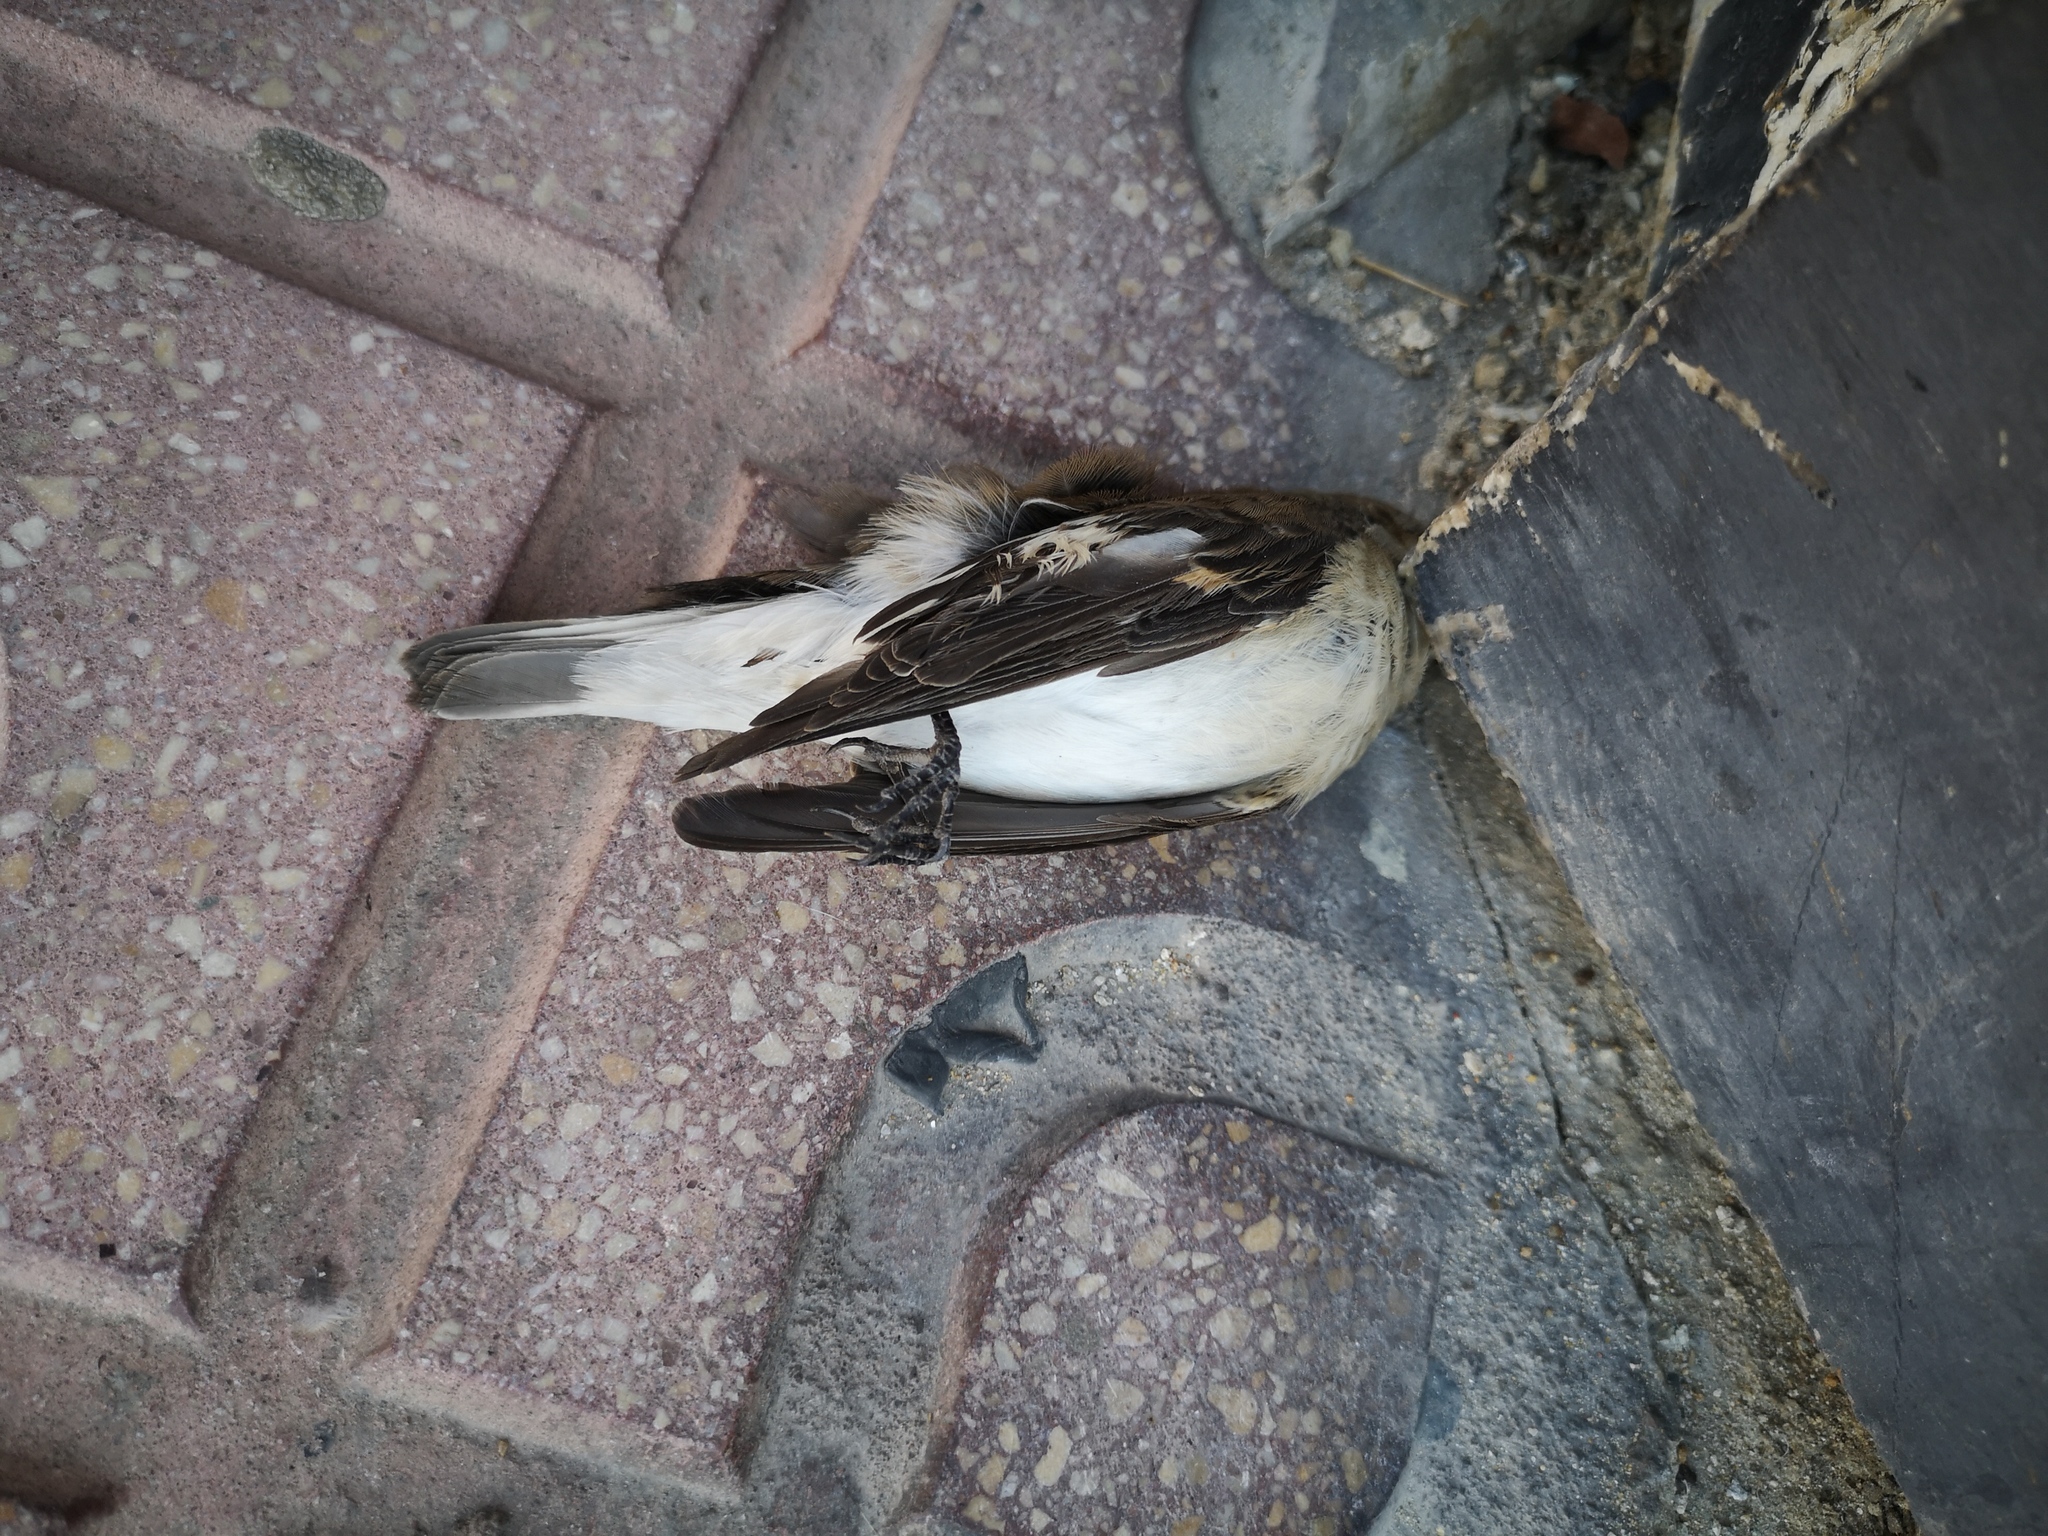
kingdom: Animalia
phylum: Chordata
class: Aves
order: Passeriformes
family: Muscicapidae
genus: Ficedula
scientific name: Ficedula hypoleuca
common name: European pied flycatcher
